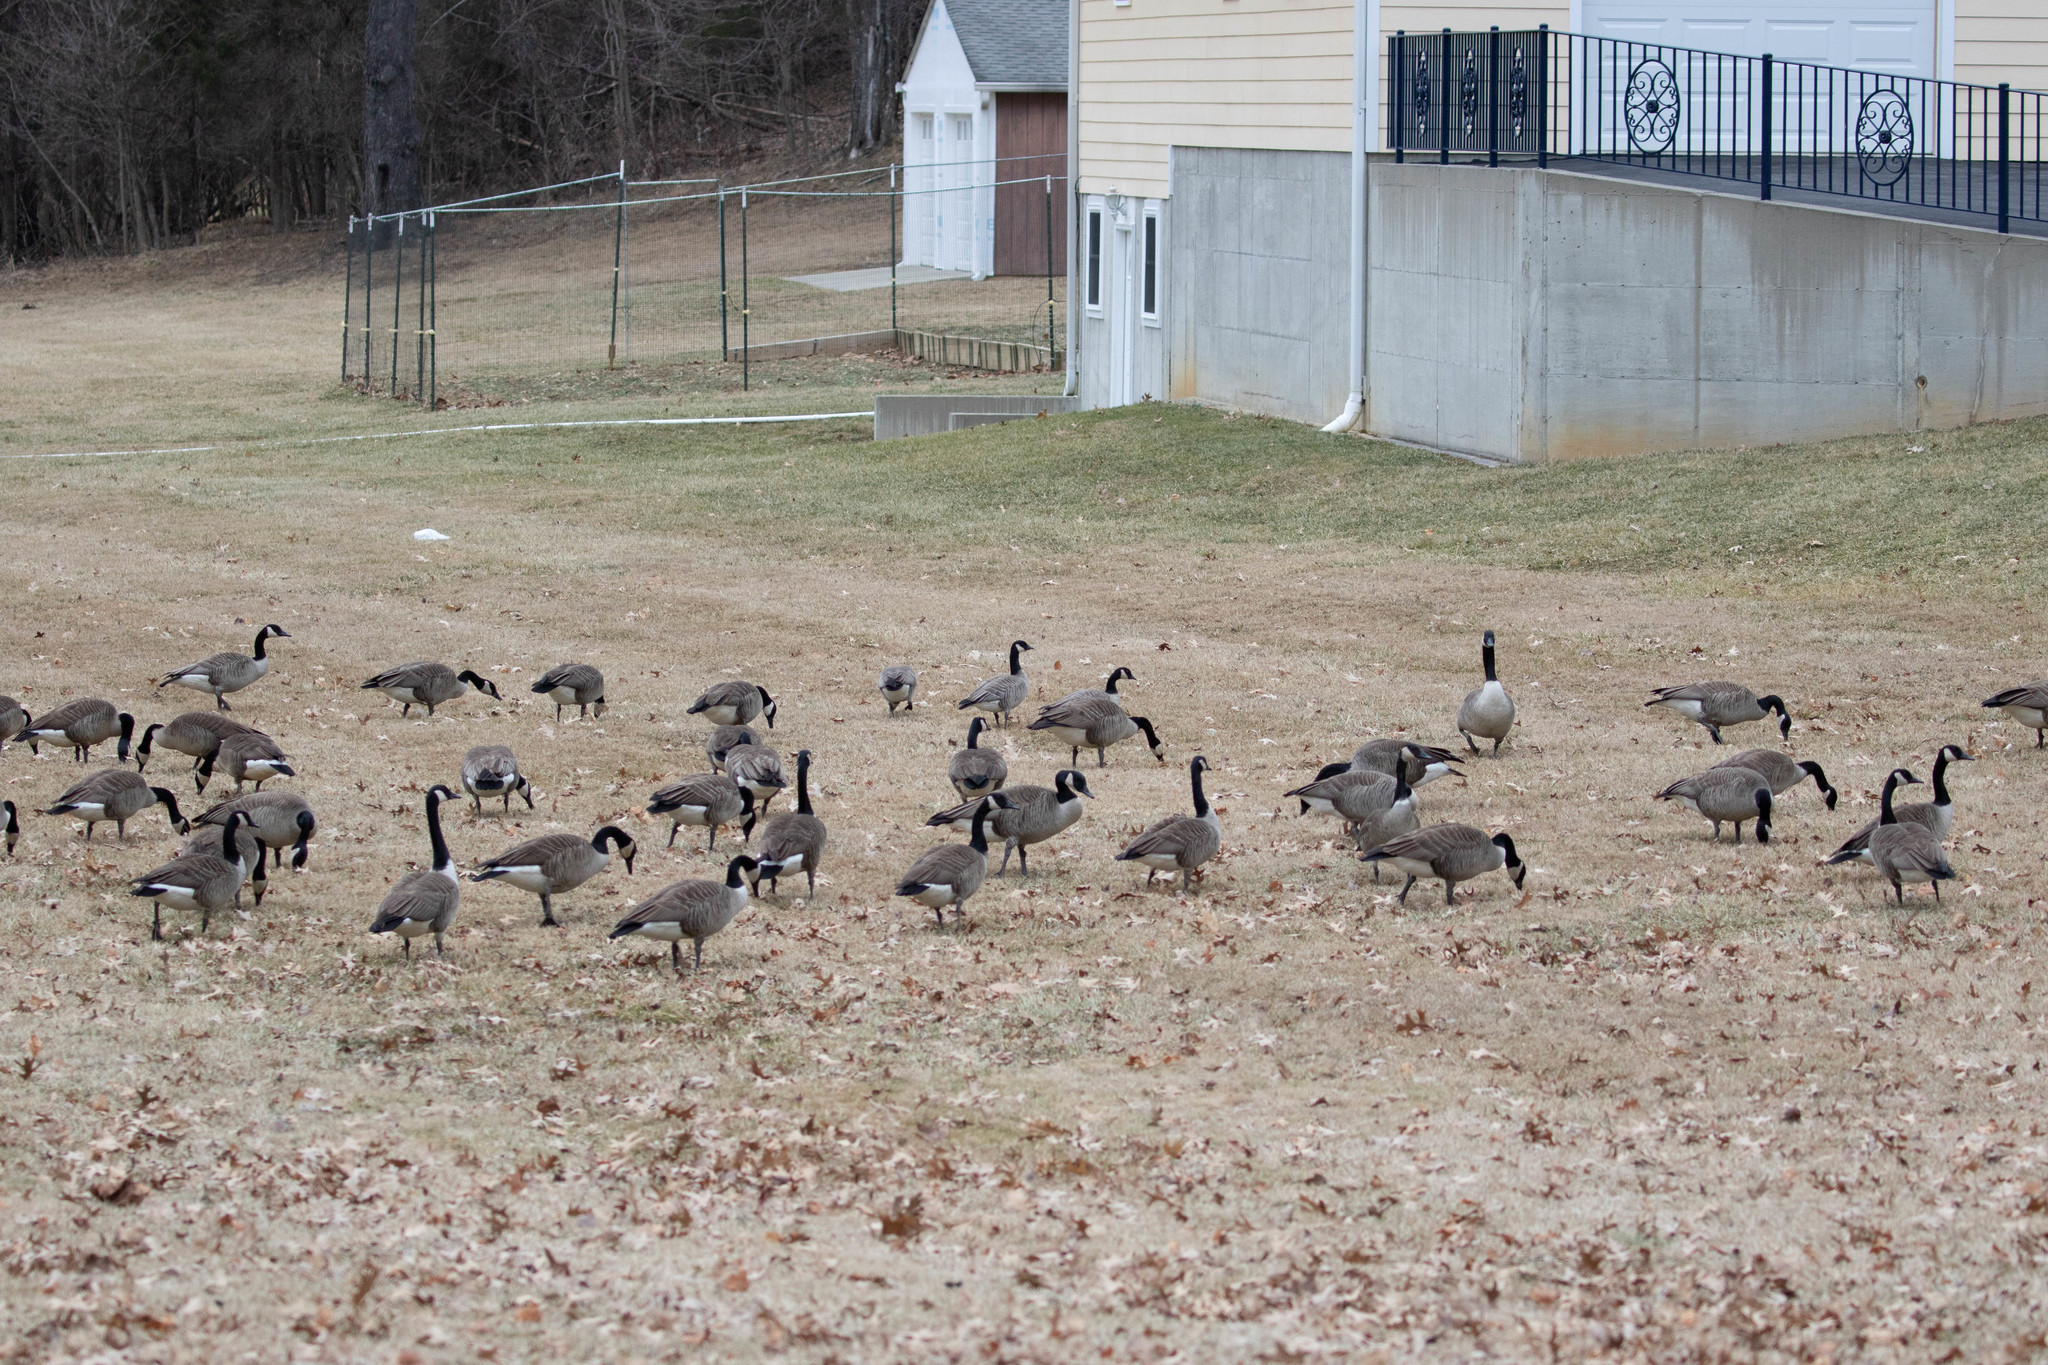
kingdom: Animalia
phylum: Chordata
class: Aves
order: Anseriformes
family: Anatidae
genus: Branta
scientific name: Branta canadensis
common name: Canada goose
